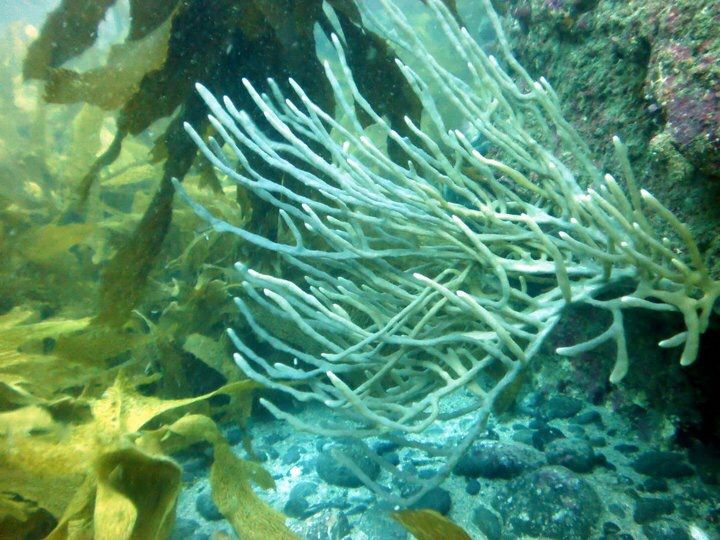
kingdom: Animalia
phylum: Porifera
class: Demospongiae
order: Haplosclerida
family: Callyspongiidae
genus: Callyspongia
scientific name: Callyspongia nuda
